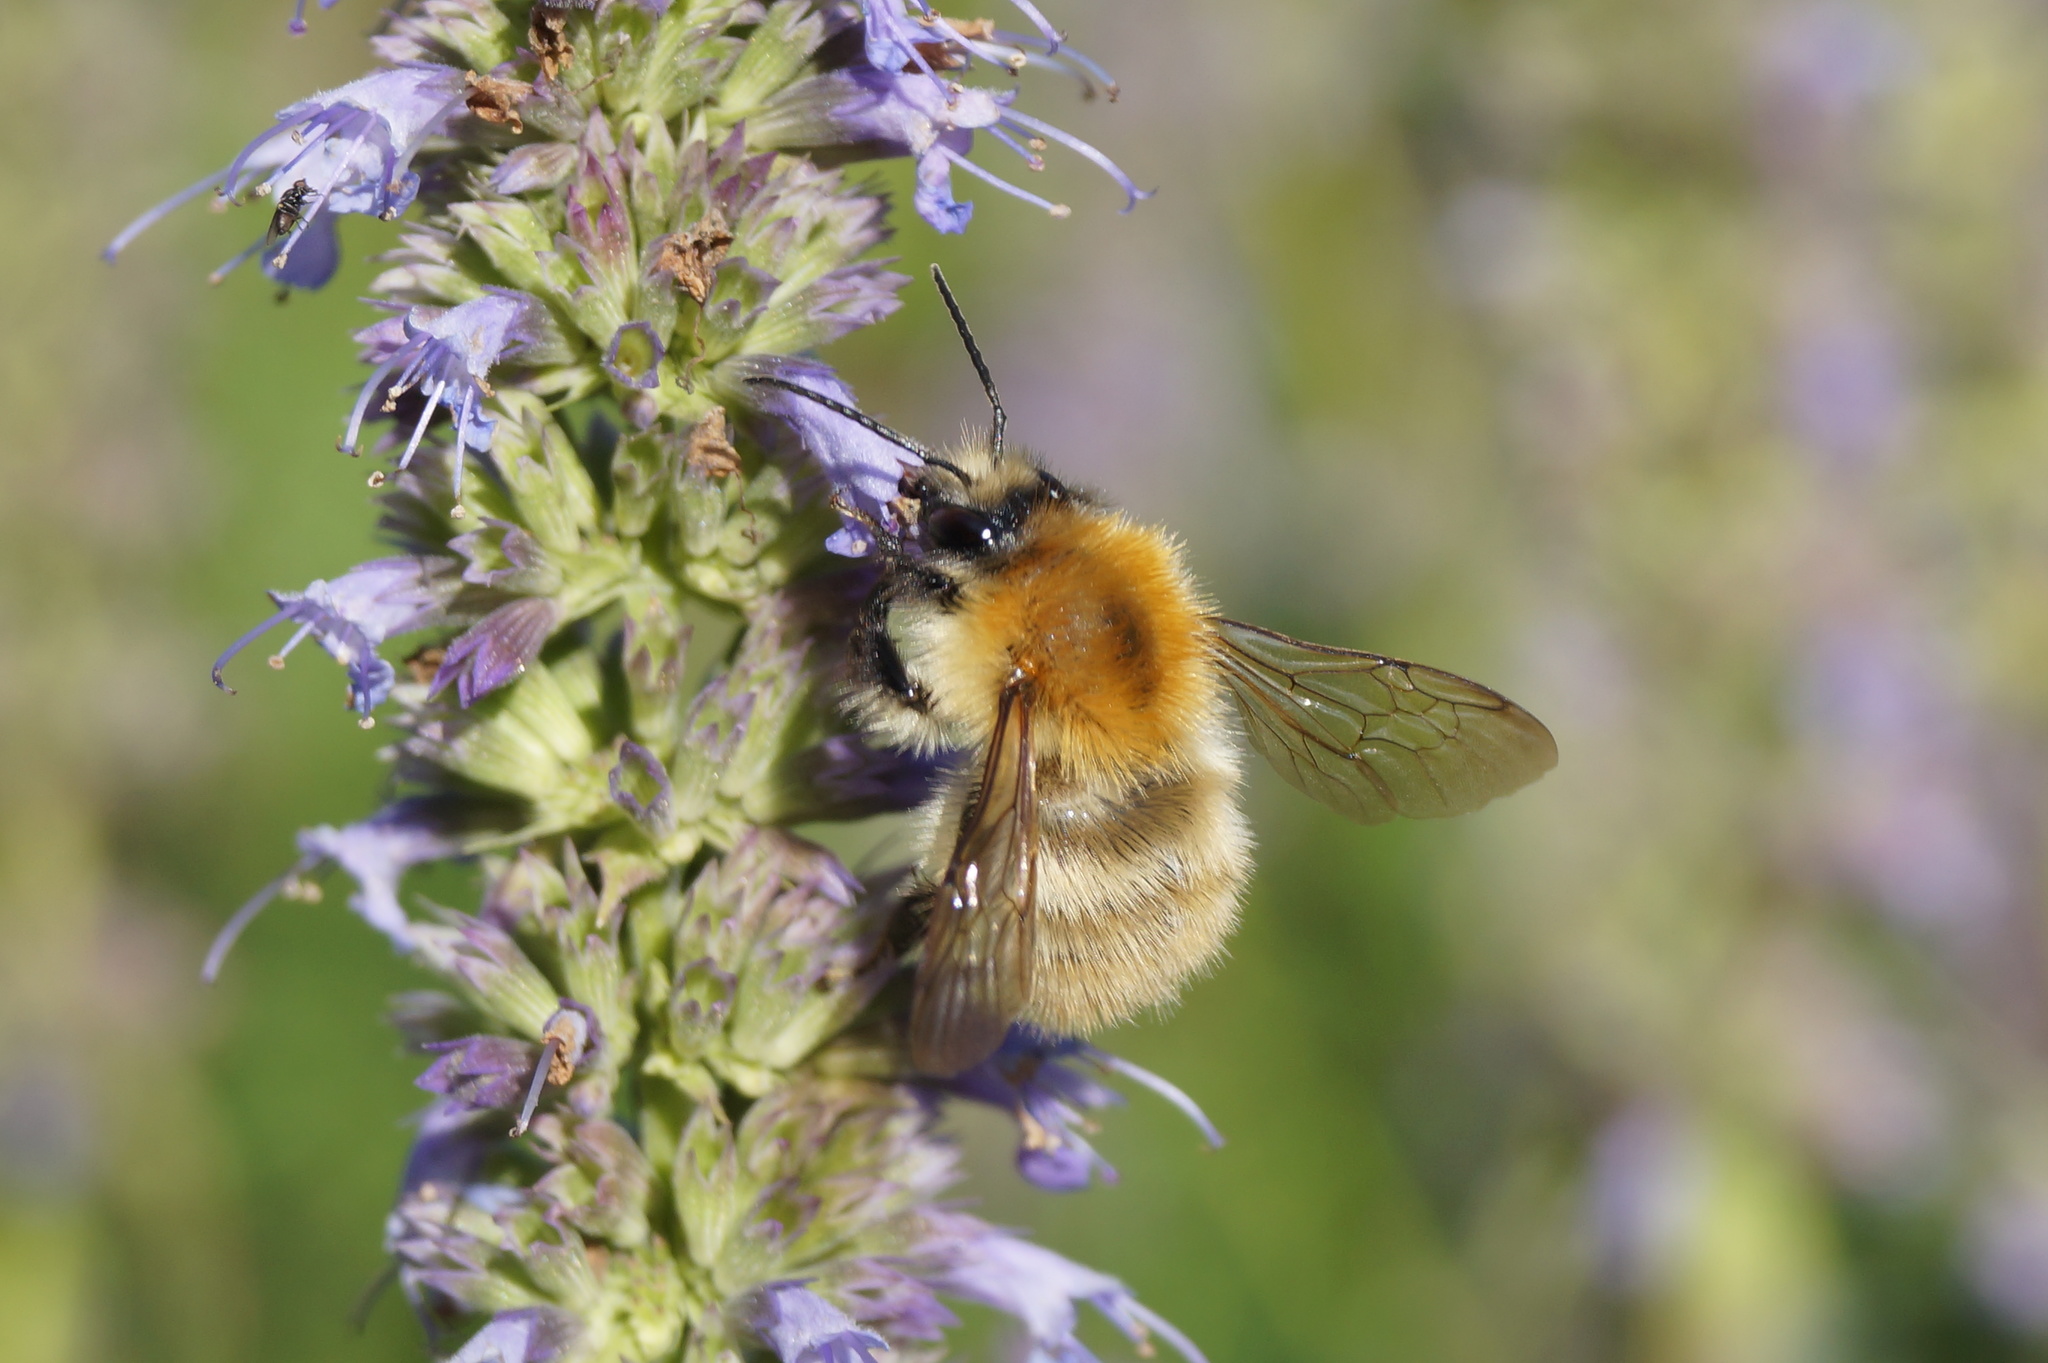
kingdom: Animalia
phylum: Arthropoda
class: Insecta
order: Hymenoptera
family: Apidae
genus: Bombus
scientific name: Bombus pascuorum
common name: Common carder bee
